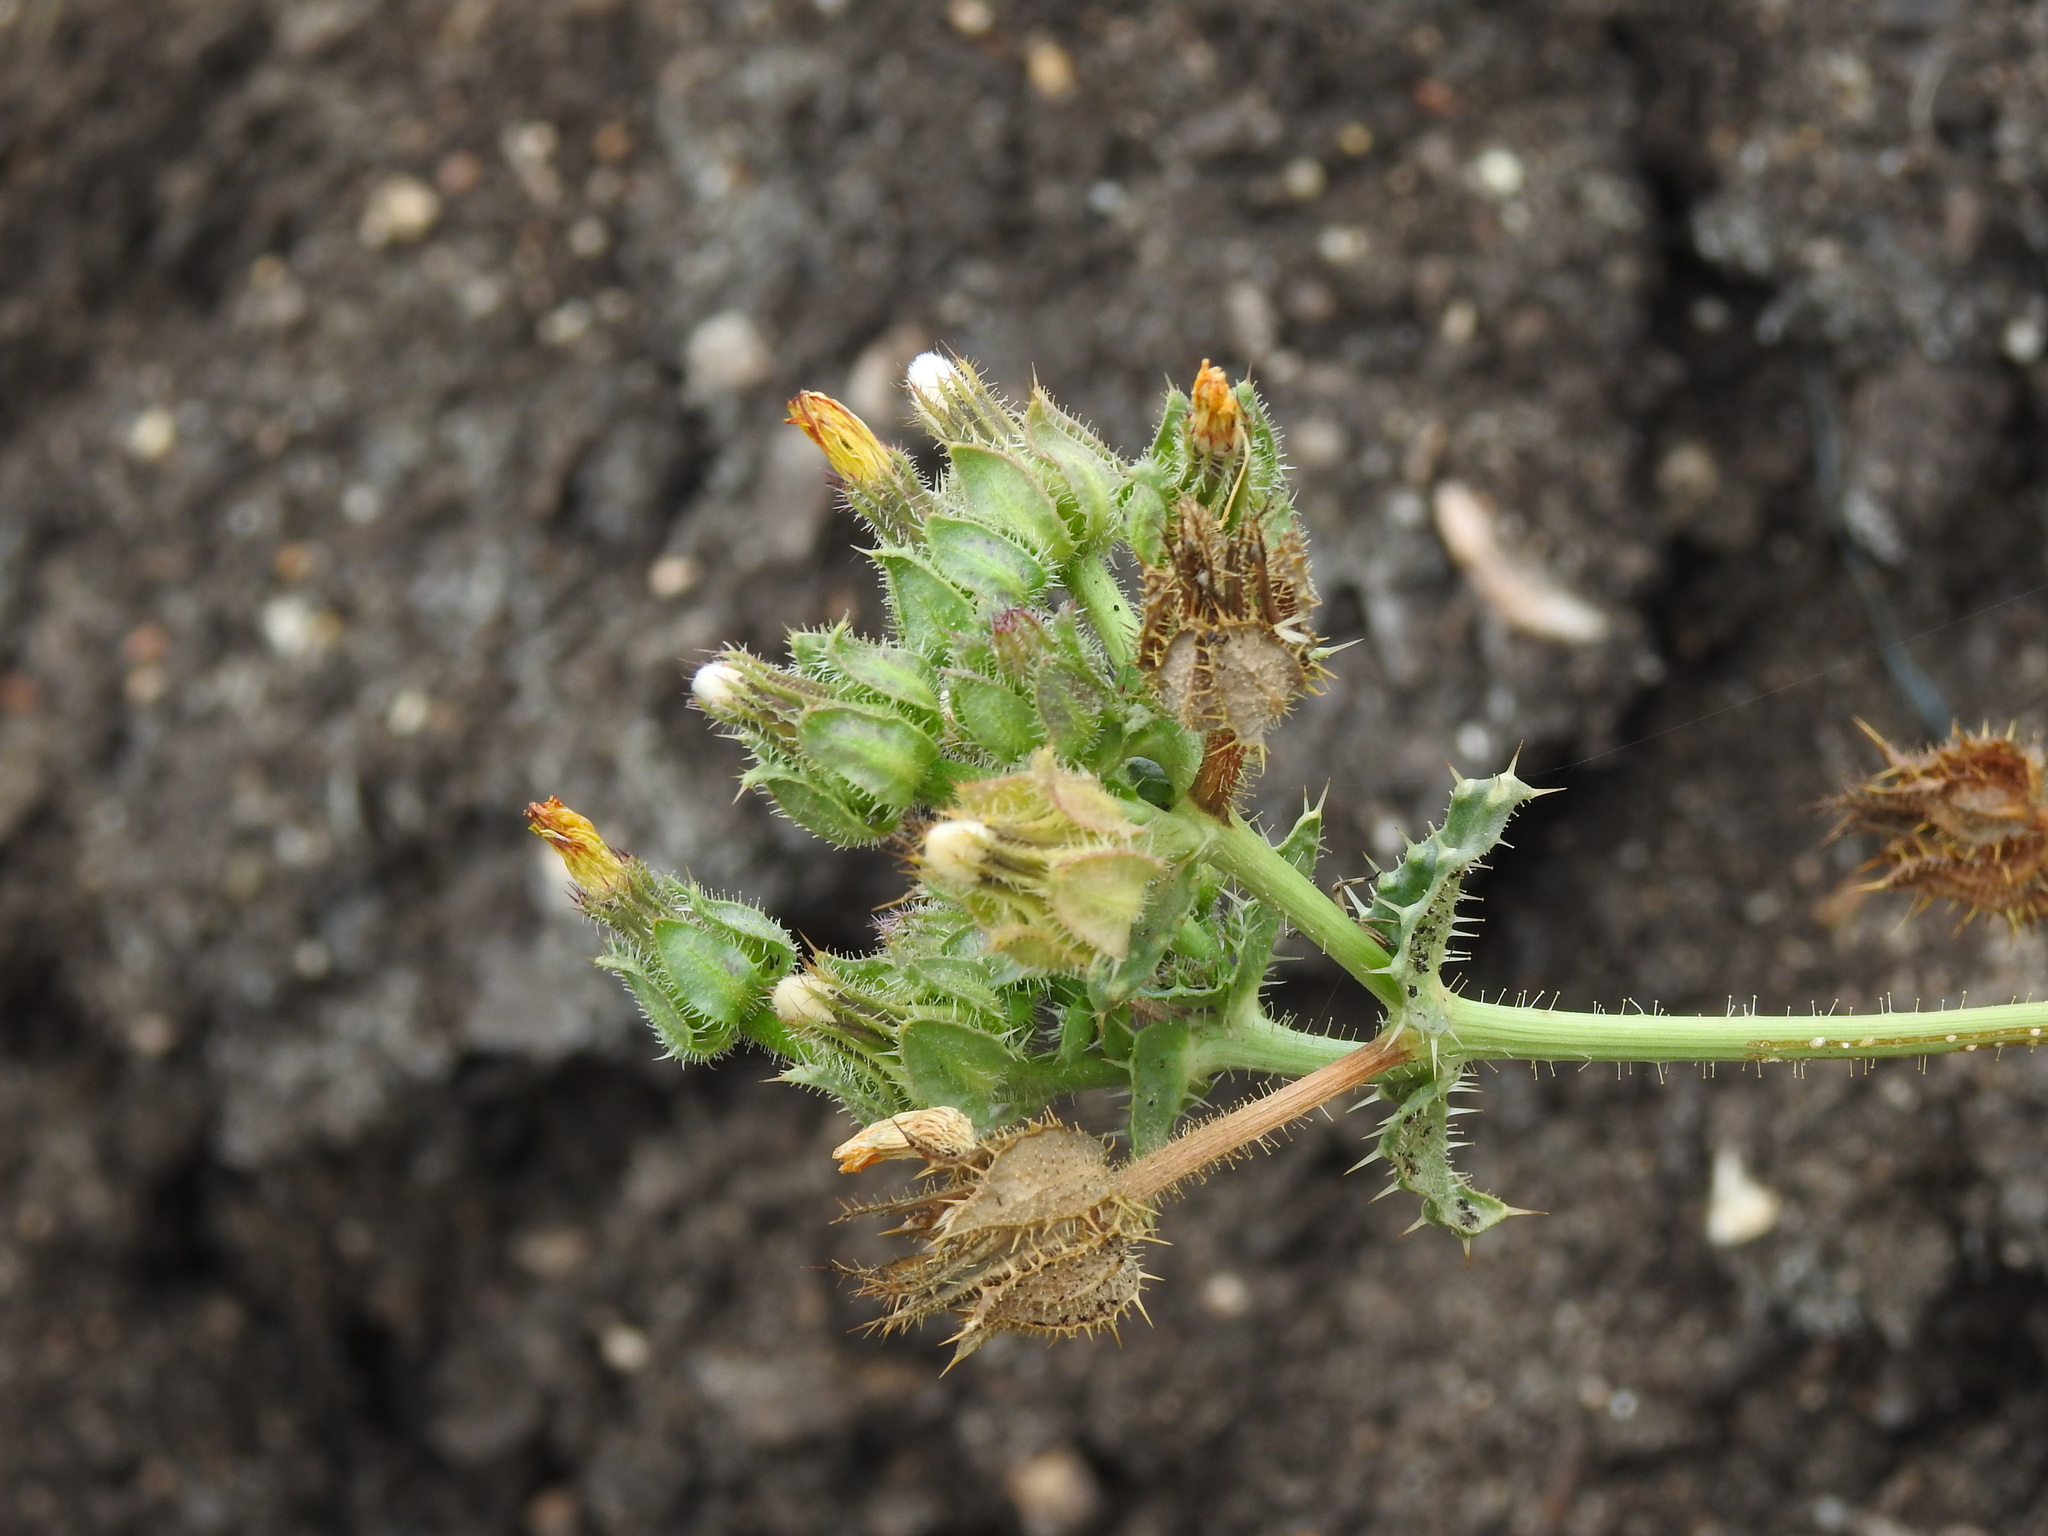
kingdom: Plantae
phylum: Tracheophyta
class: Magnoliopsida
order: Asterales
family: Asteraceae
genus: Helminthotheca
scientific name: Helminthotheca echioides
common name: Ox-tongue
